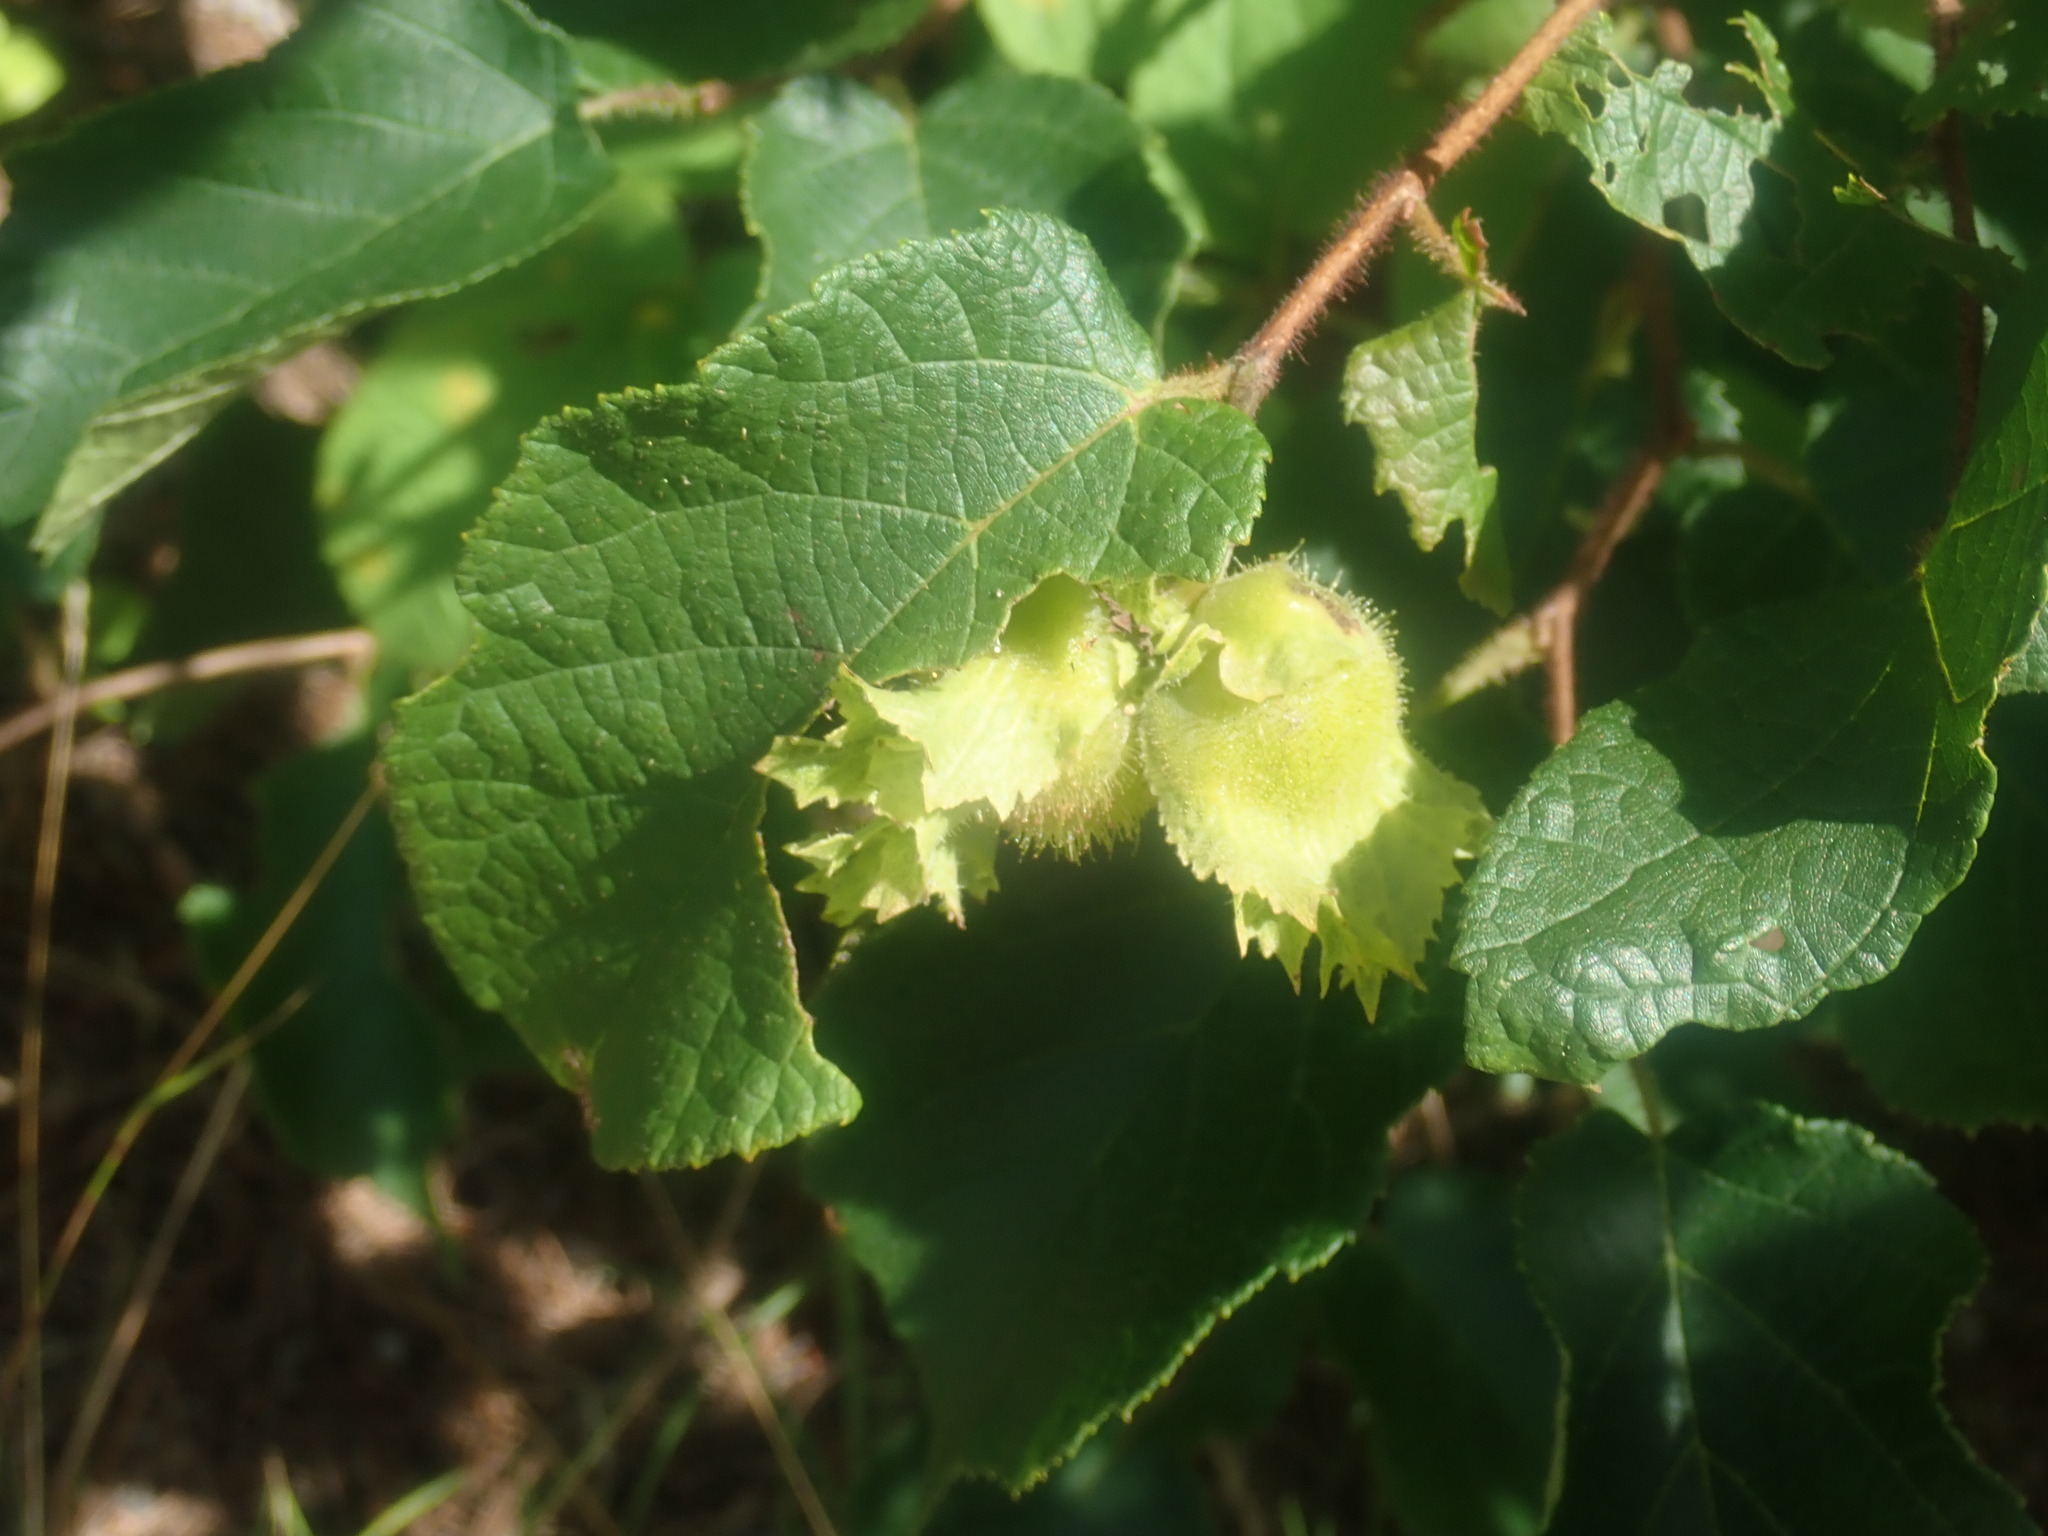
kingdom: Plantae
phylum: Tracheophyta
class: Magnoliopsida
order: Fagales
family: Betulaceae
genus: Corylus
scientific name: Corylus americana
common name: American hazel
